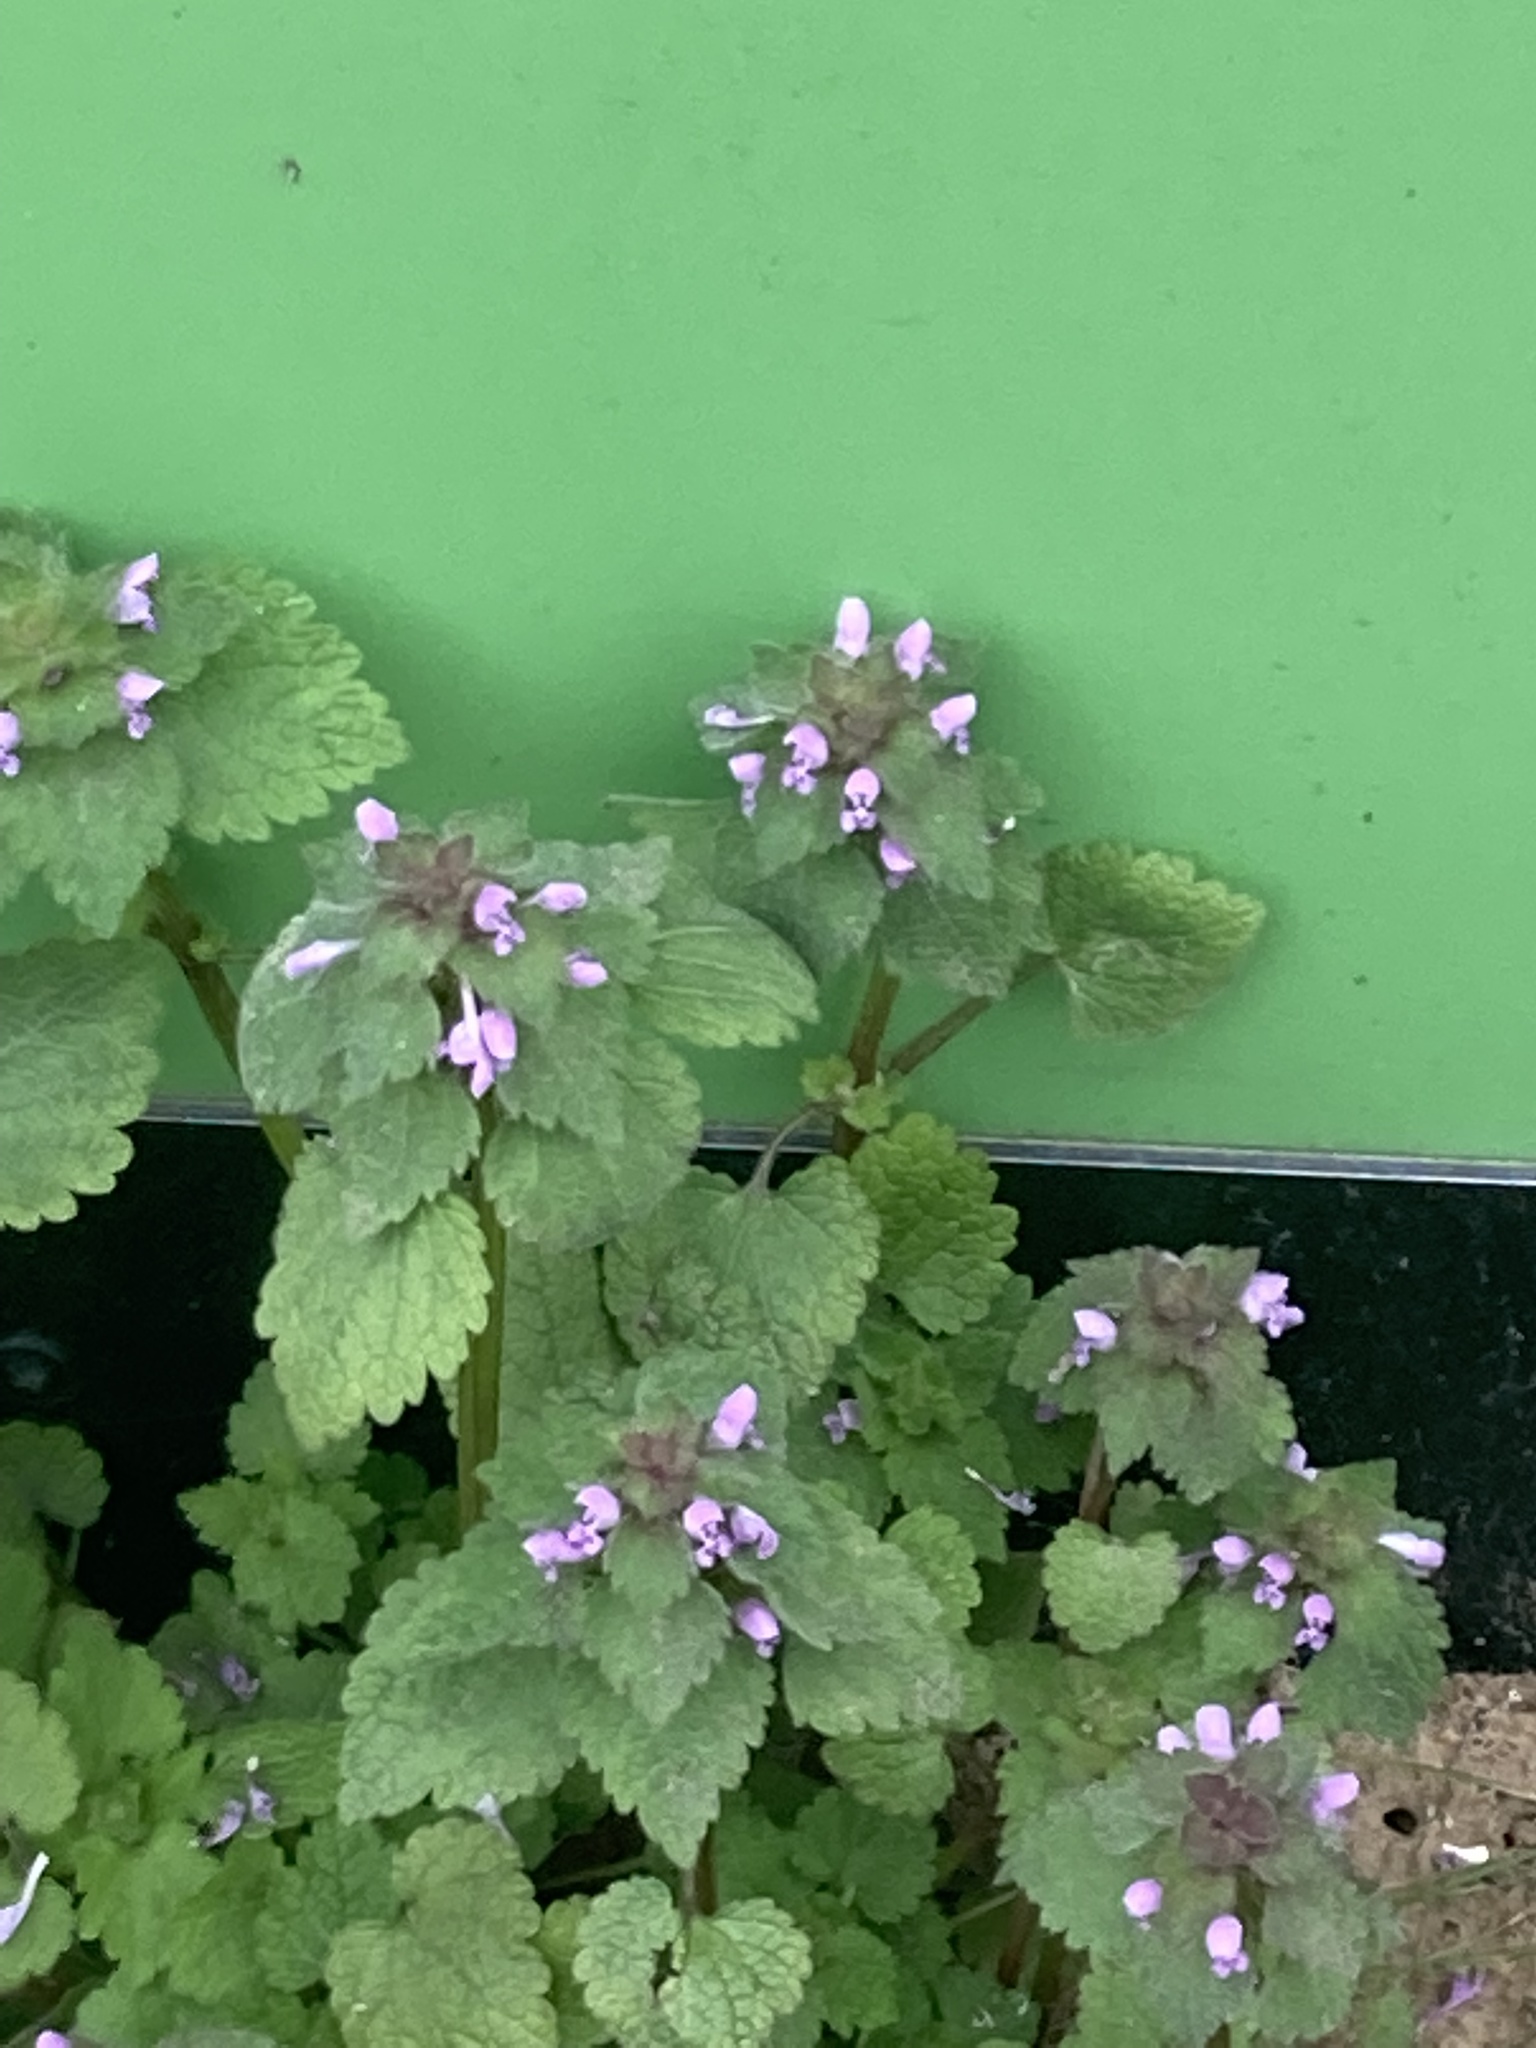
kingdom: Plantae
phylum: Tracheophyta
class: Magnoliopsida
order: Lamiales
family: Lamiaceae
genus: Lamium
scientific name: Lamium purpureum
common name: Red dead-nettle
